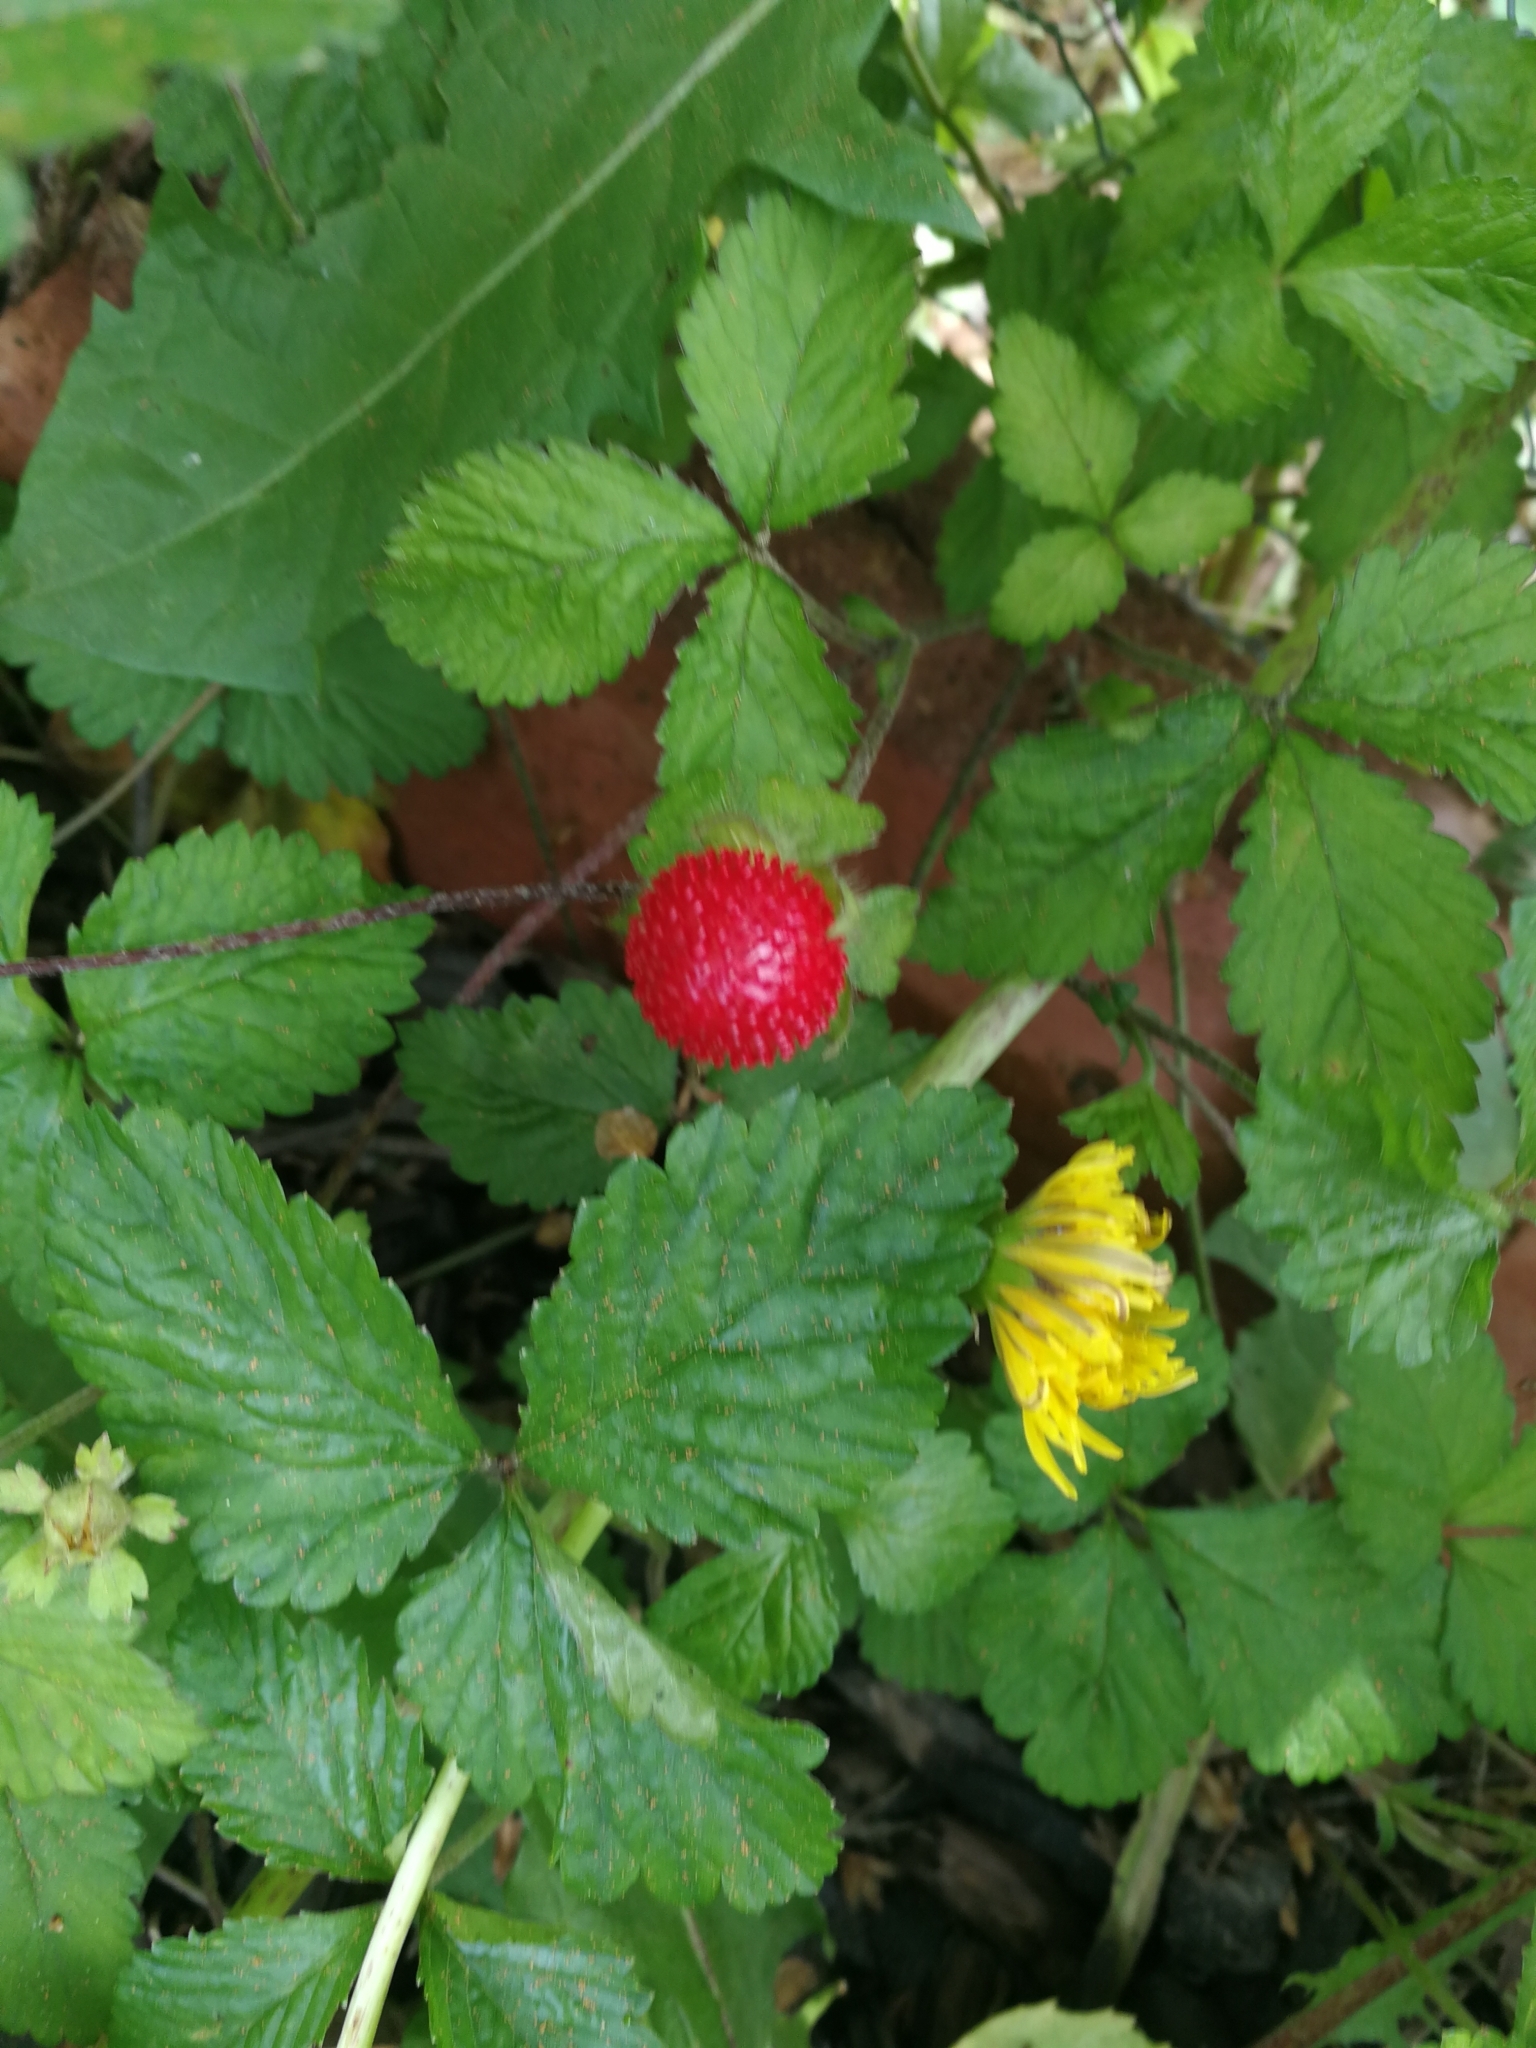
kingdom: Plantae
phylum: Tracheophyta
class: Magnoliopsida
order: Rosales
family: Rosaceae
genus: Potentilla
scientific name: Potentilla indica
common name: Yellow-flowered strawberry
